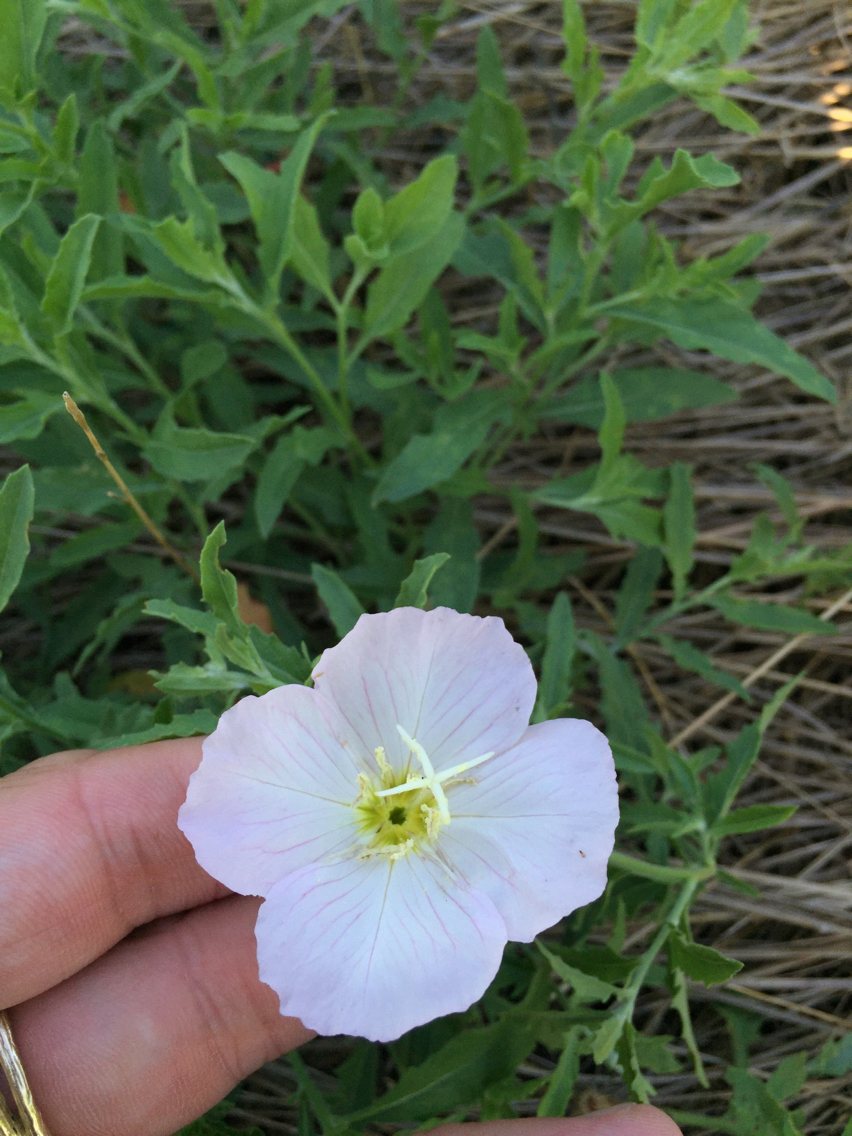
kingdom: Plantae
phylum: Tracheophyta
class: Magnoliopsida
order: Myrtales
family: Onagraceae
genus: Oenothera
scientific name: Oenothera speciosa
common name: White evening-primrose
